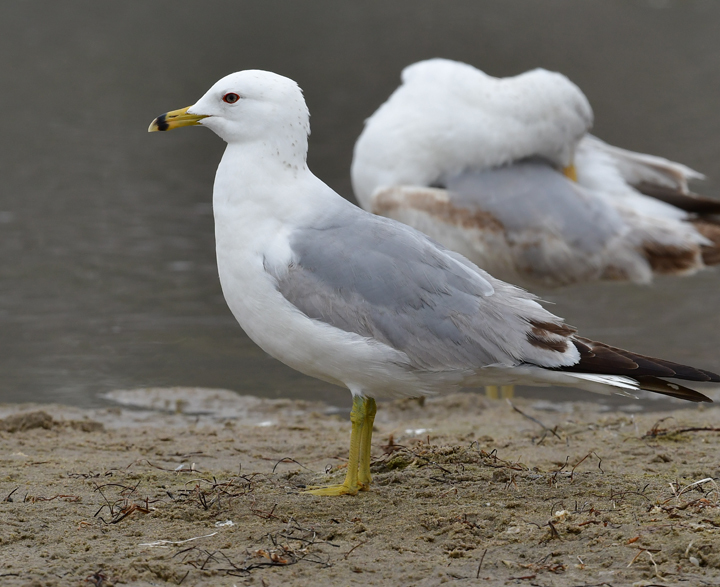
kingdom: Animalia
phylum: Chordata
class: Aves
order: Charadriiformes
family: Laridae
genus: Larus
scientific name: Larus delawarensis
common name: Ring-billed gull
